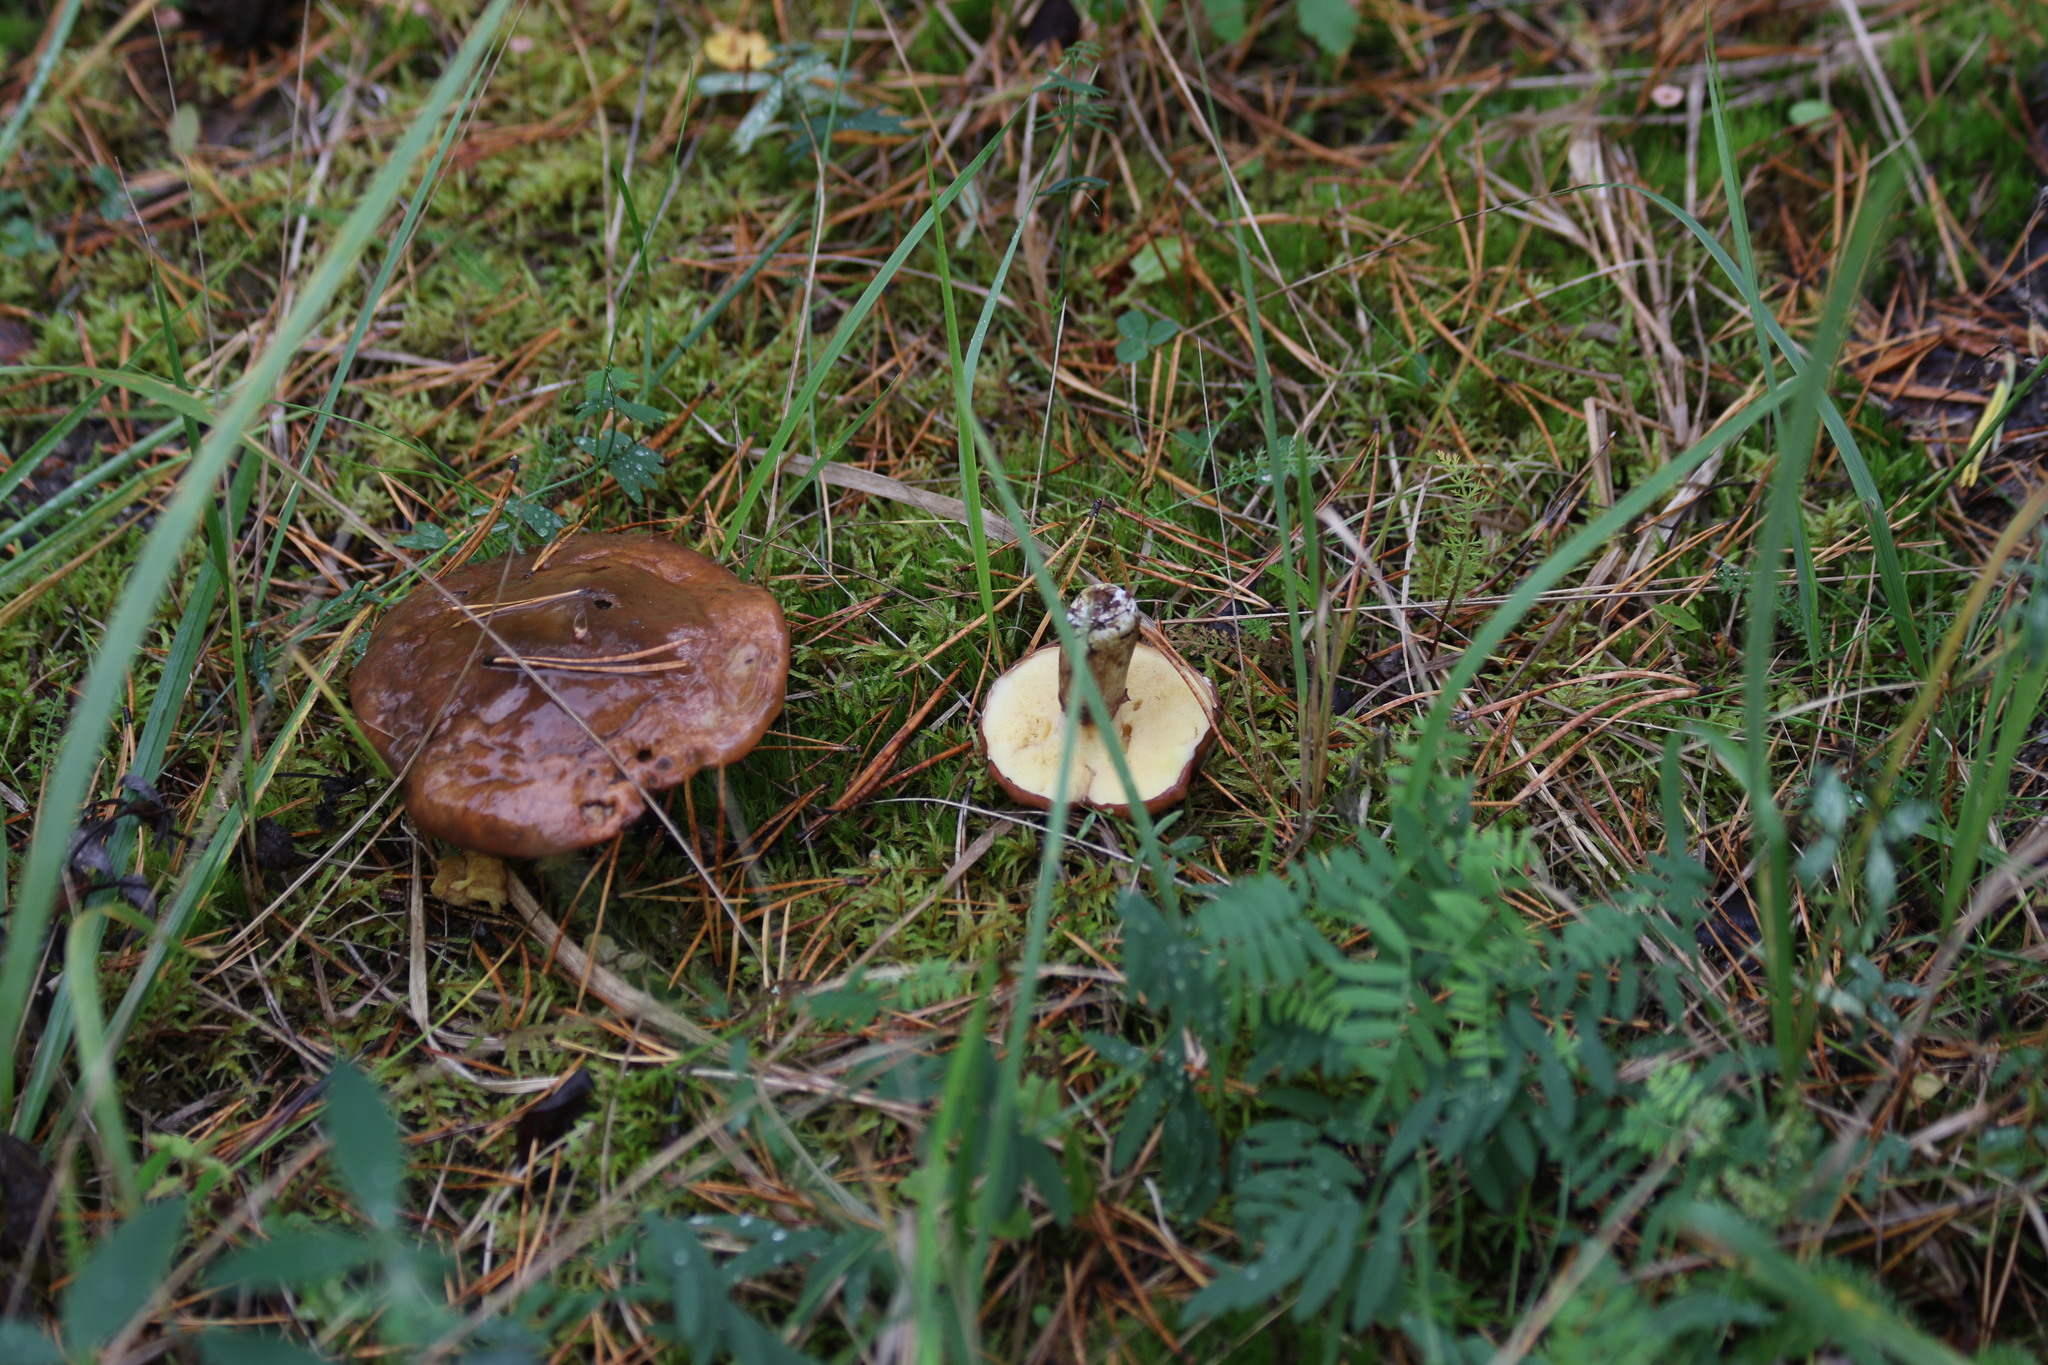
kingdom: Fungi
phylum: Basidiomycota
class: Agaricomycetes
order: Boletales
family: Suillaceae
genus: Suillus
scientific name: Suillus luteus
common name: Slippery jack
